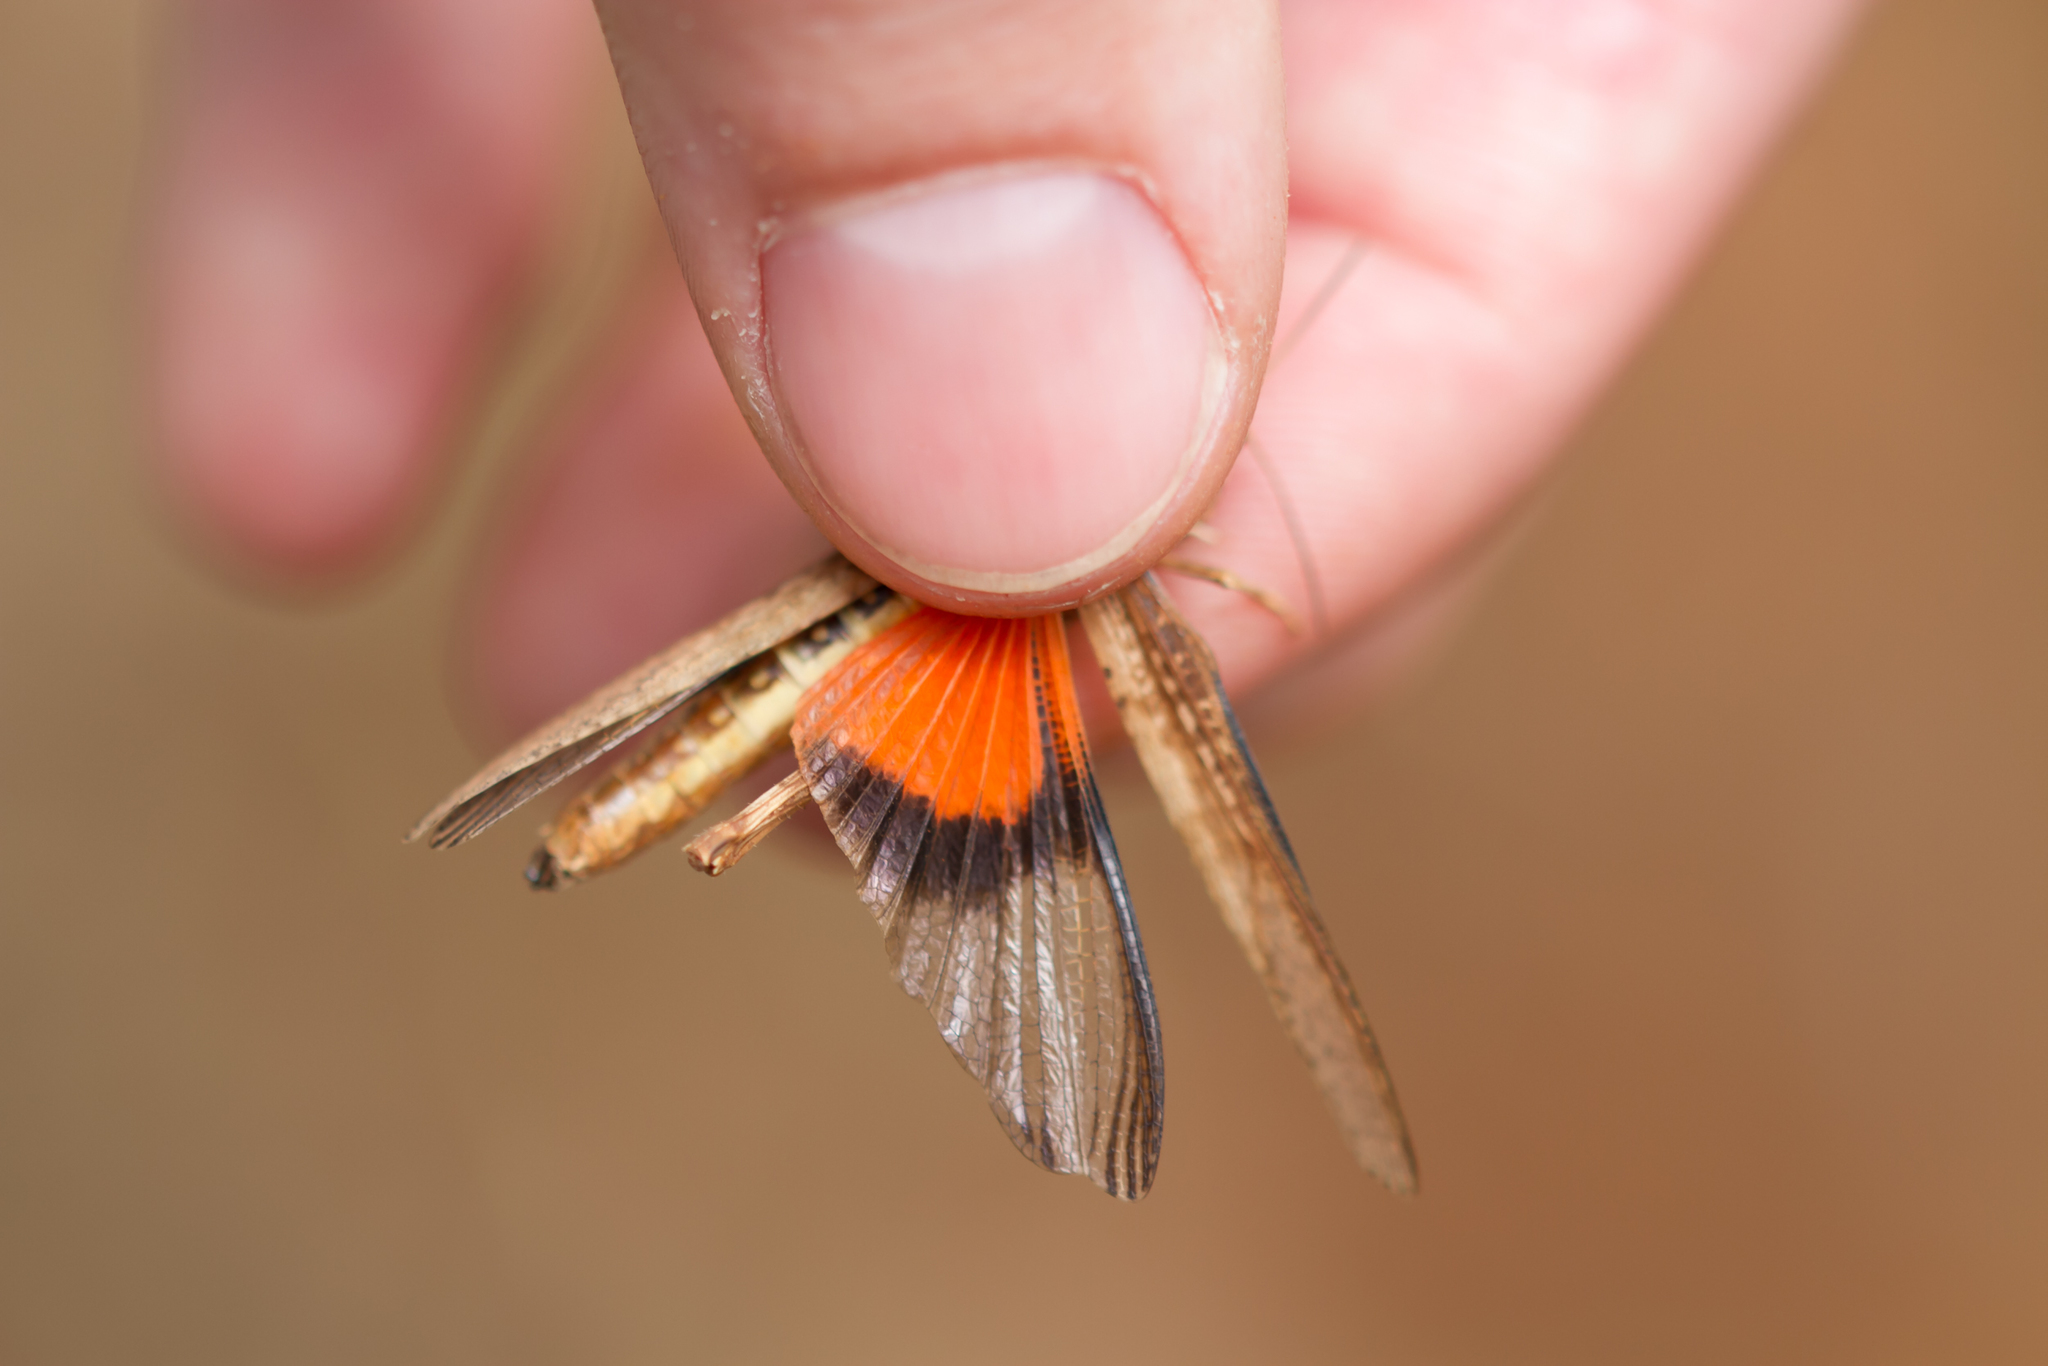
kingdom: Animalia
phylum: Arthropoda
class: Insecta
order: Orthoptera
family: Acrididae
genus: Morphacris
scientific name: Morphacris fasciata
